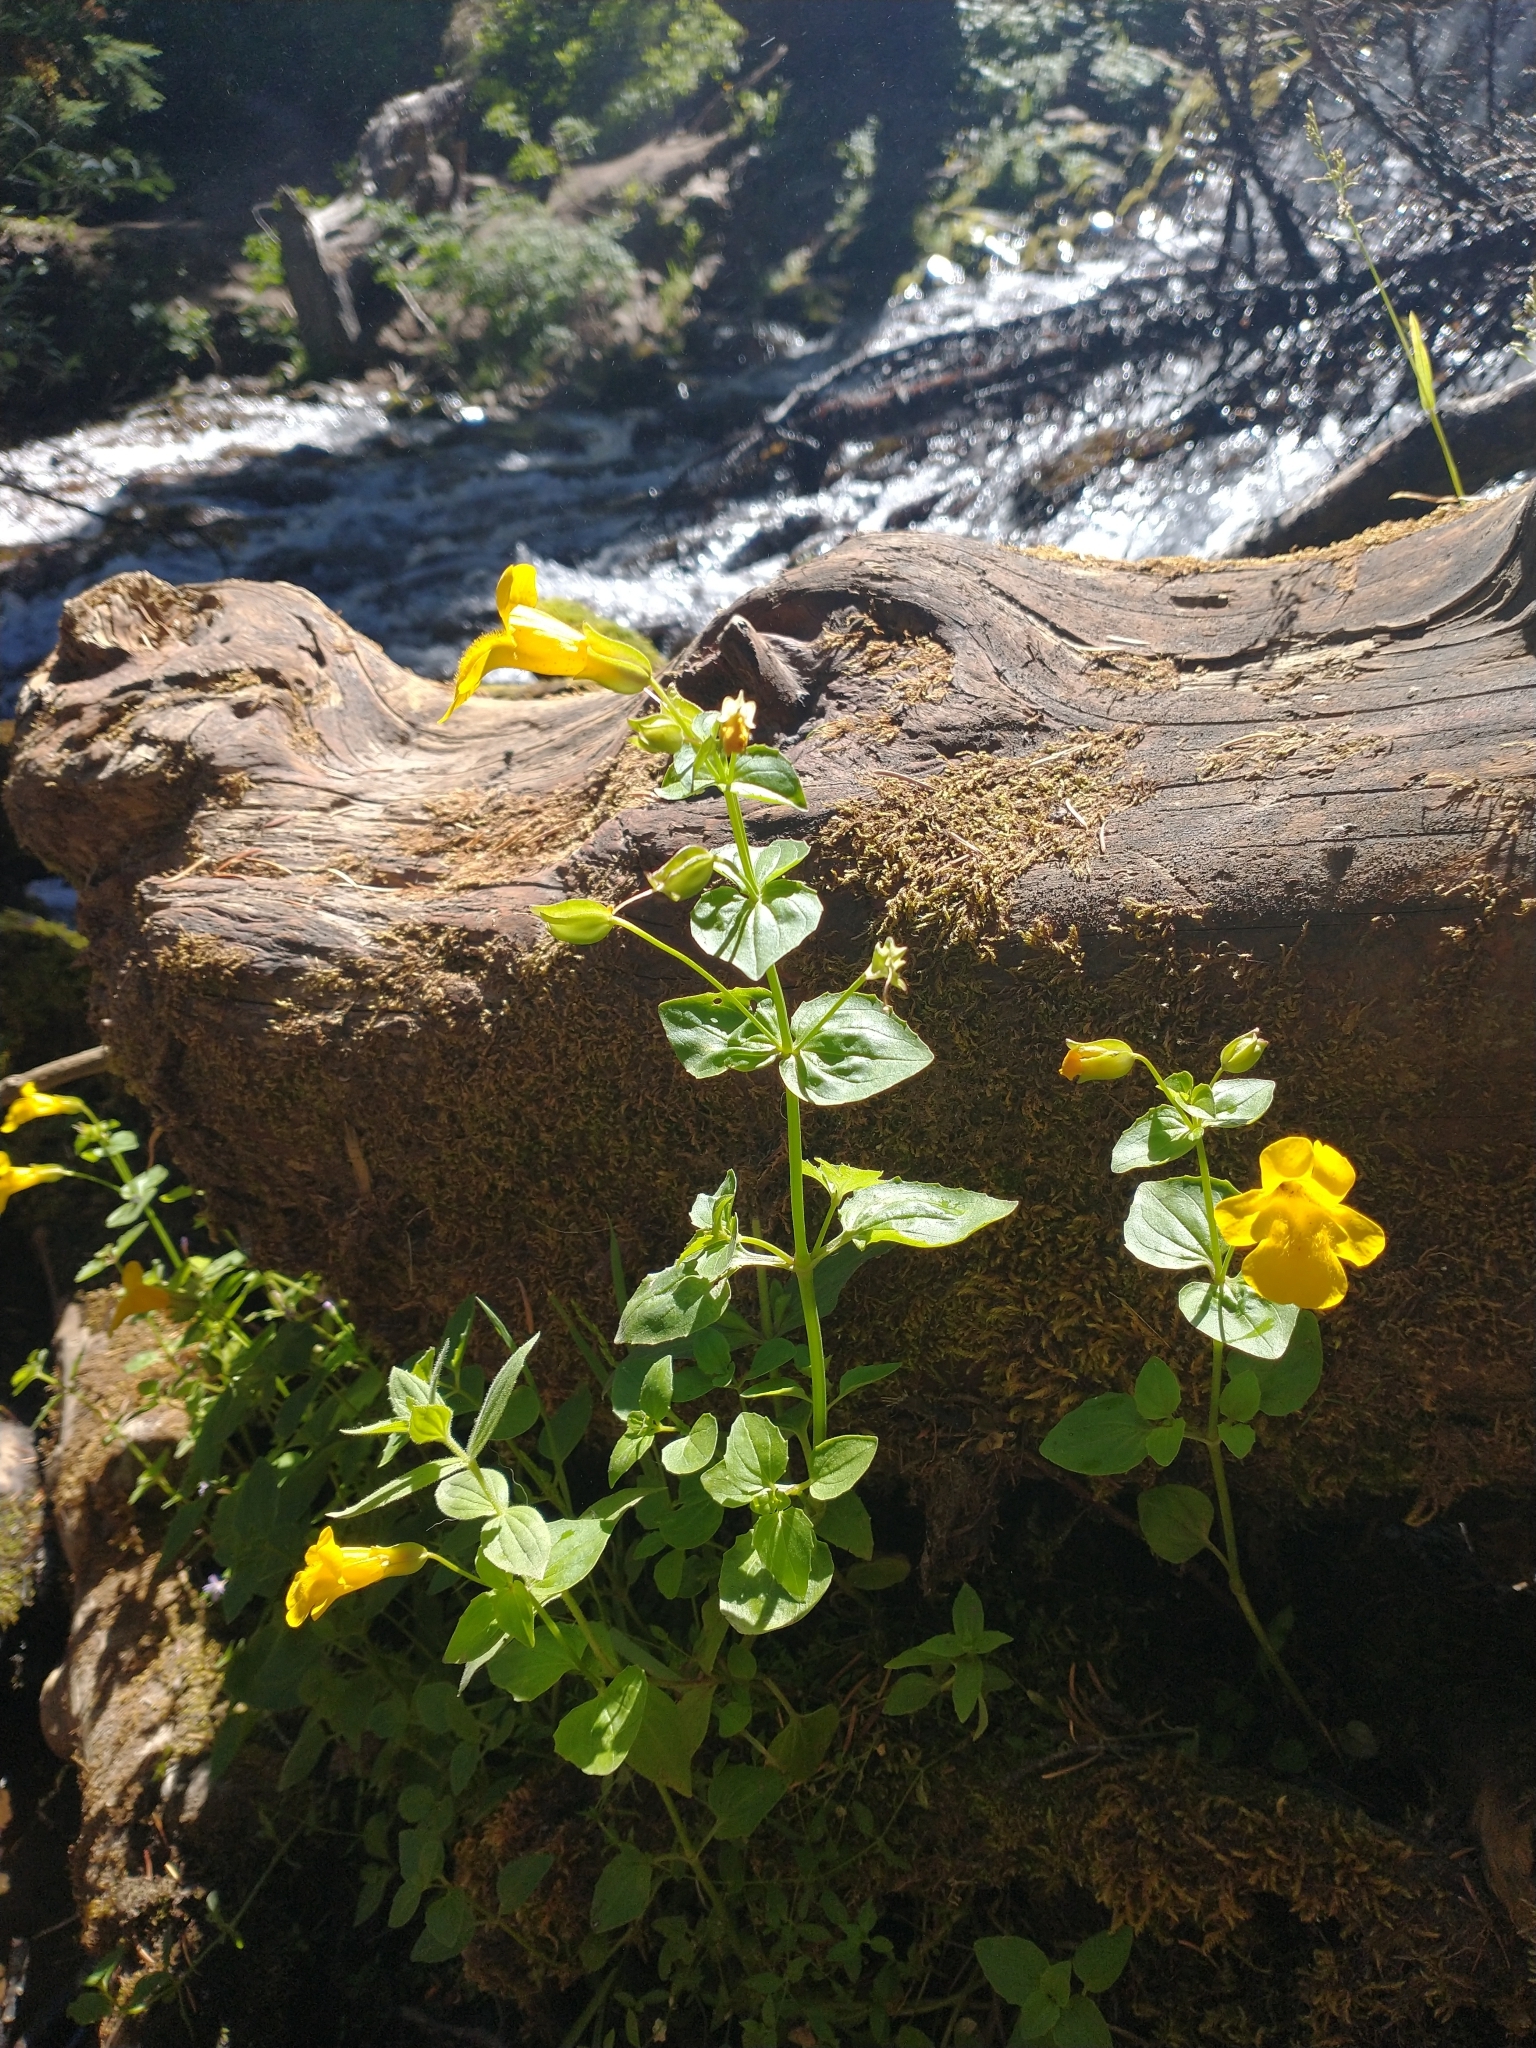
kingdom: Plantae
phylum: Tracheophyta
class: Magnoliopsida
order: Lamiales
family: Phrymaceae
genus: Erythranthe
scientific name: Erythranthe decora
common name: Mannered monkeyflower
